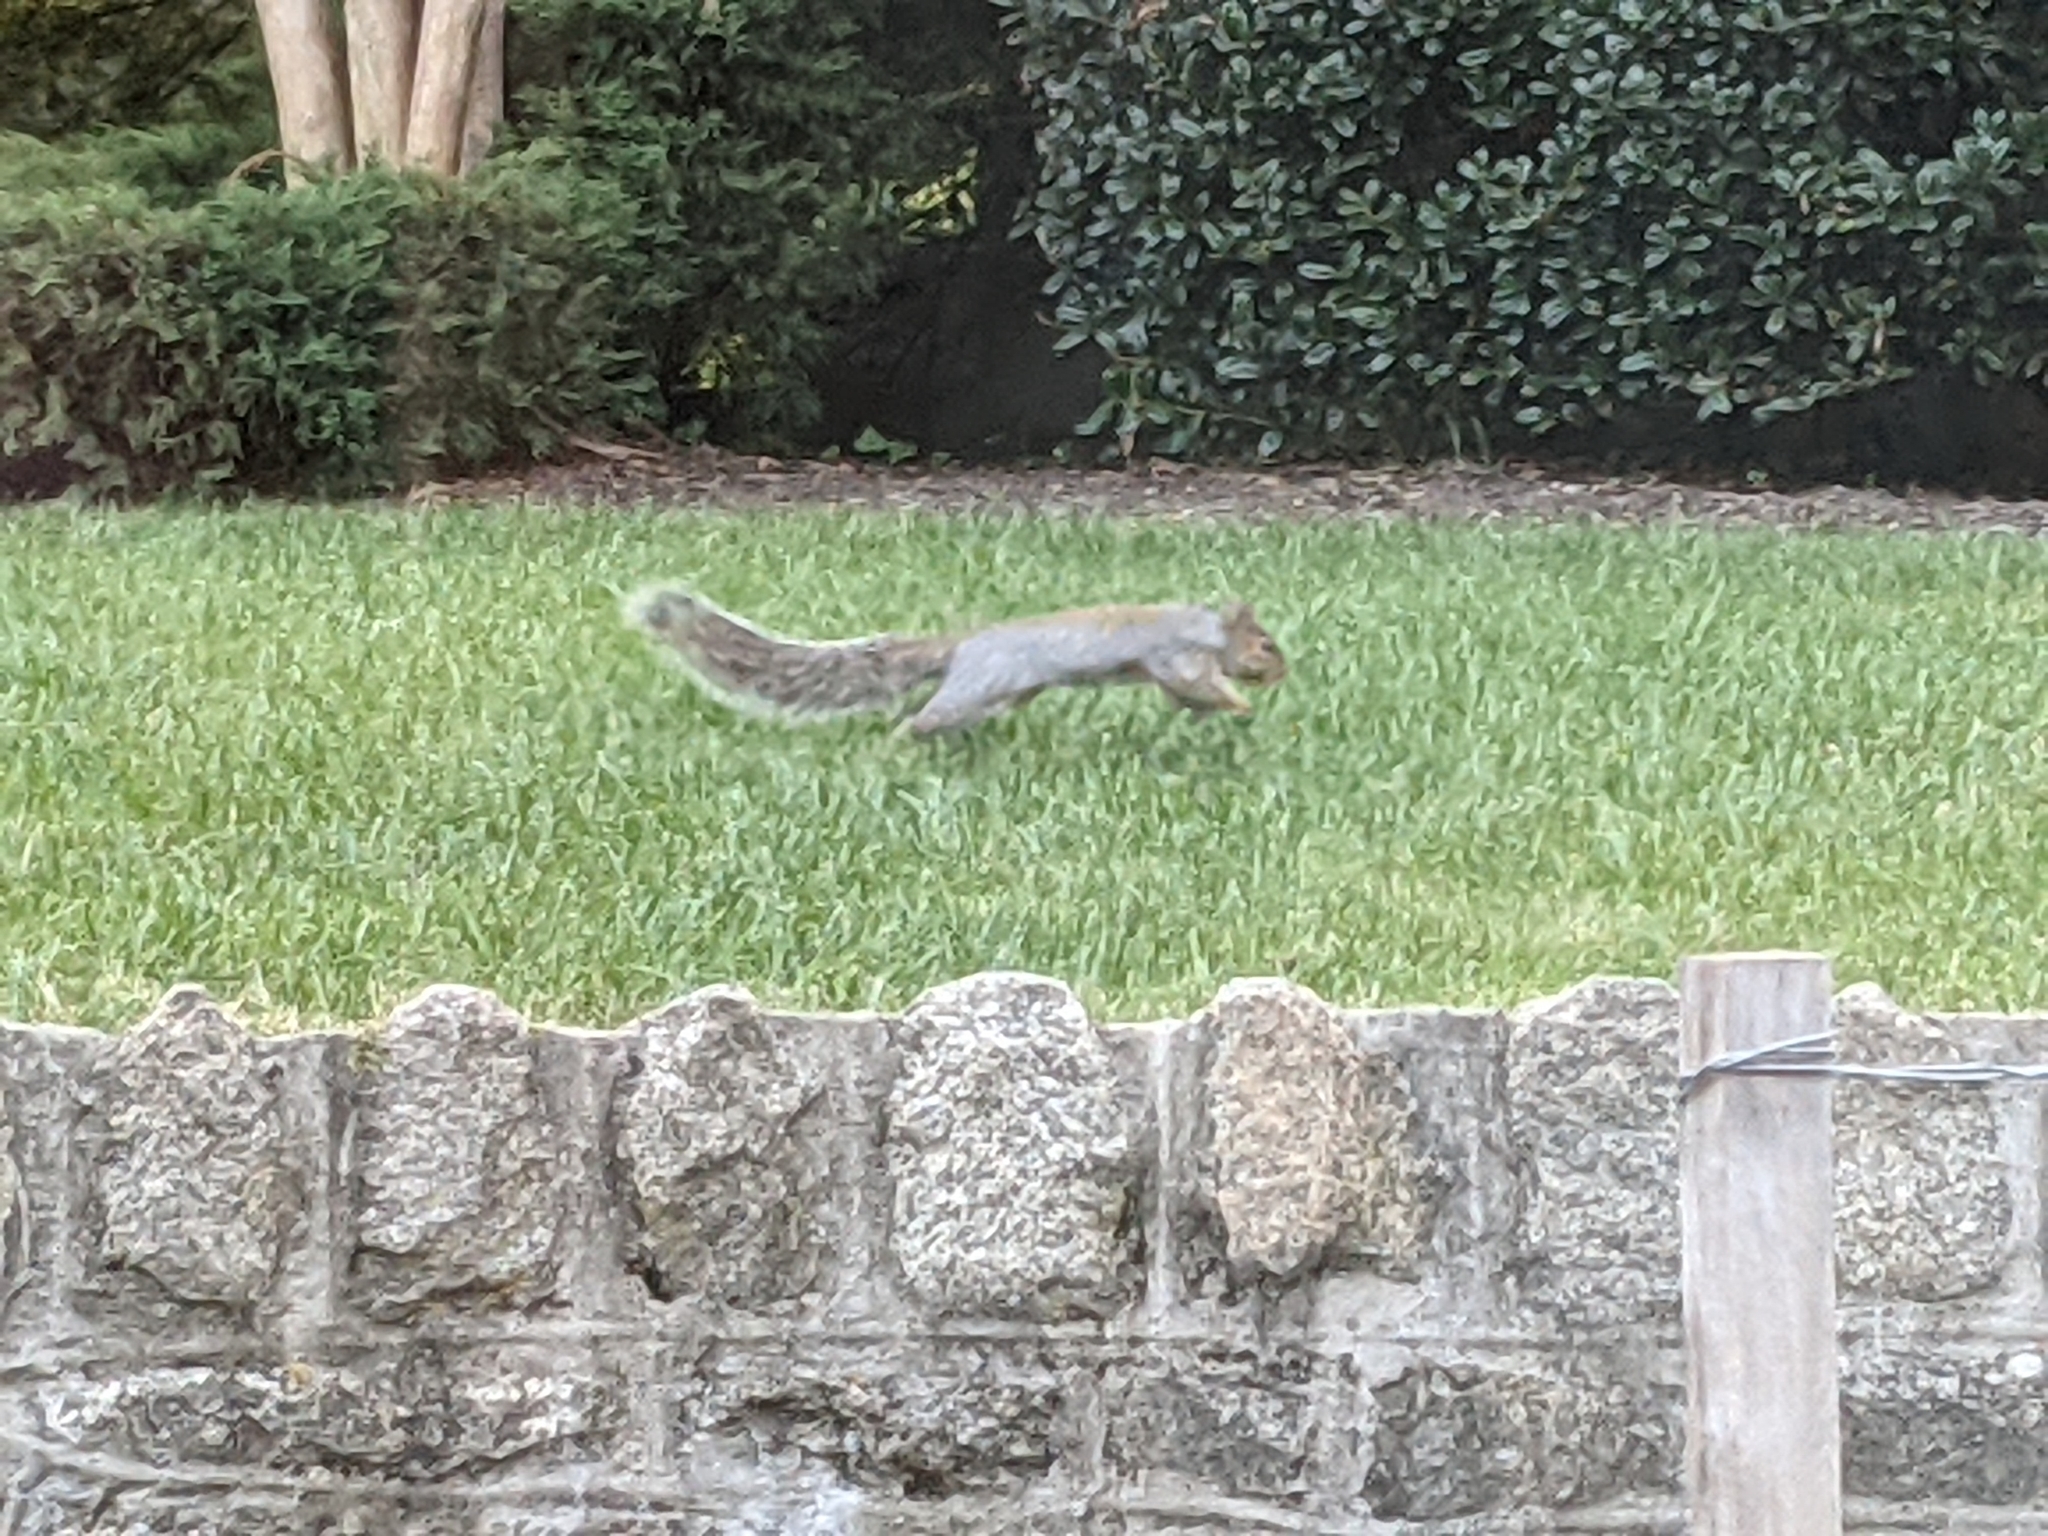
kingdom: Animalia
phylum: Chordata
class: Mammalia
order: Rodentia
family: Sciuridae
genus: Sciurus
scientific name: Sciurus carolinensis
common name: Eastern gray squirrel
